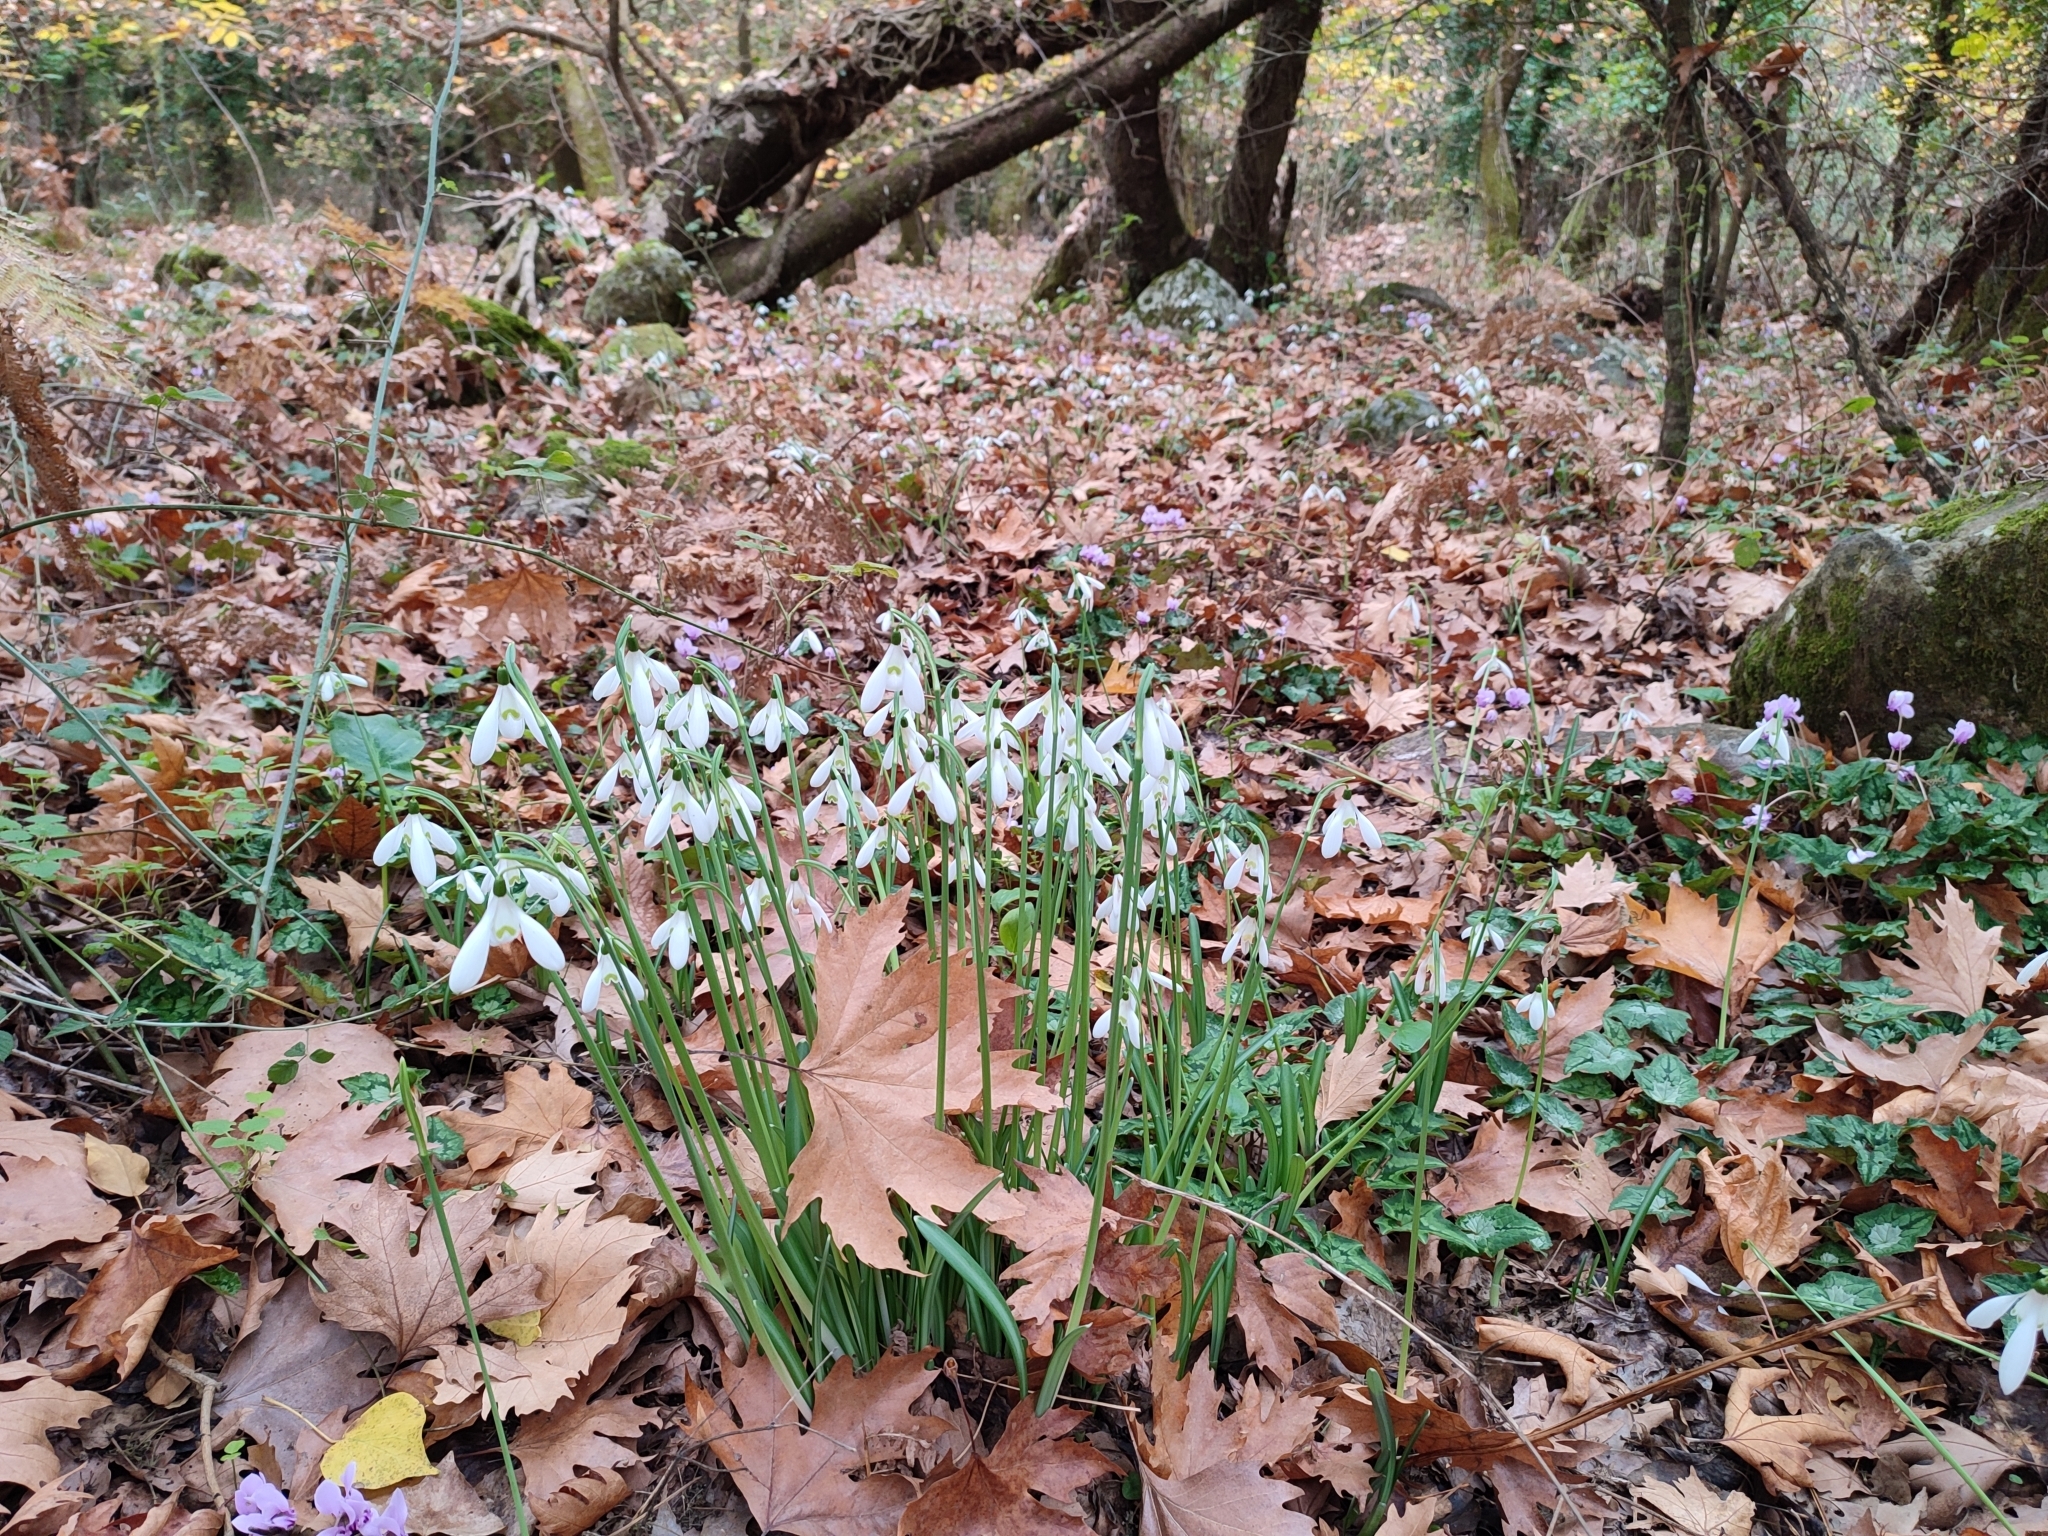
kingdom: Plantae
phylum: Tracheophyta
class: Liliopsida
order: Asparagales
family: Amaryllidaceae
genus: Galanthus
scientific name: Galanthus reginae-olgae
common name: Queen olga's snowdrop
